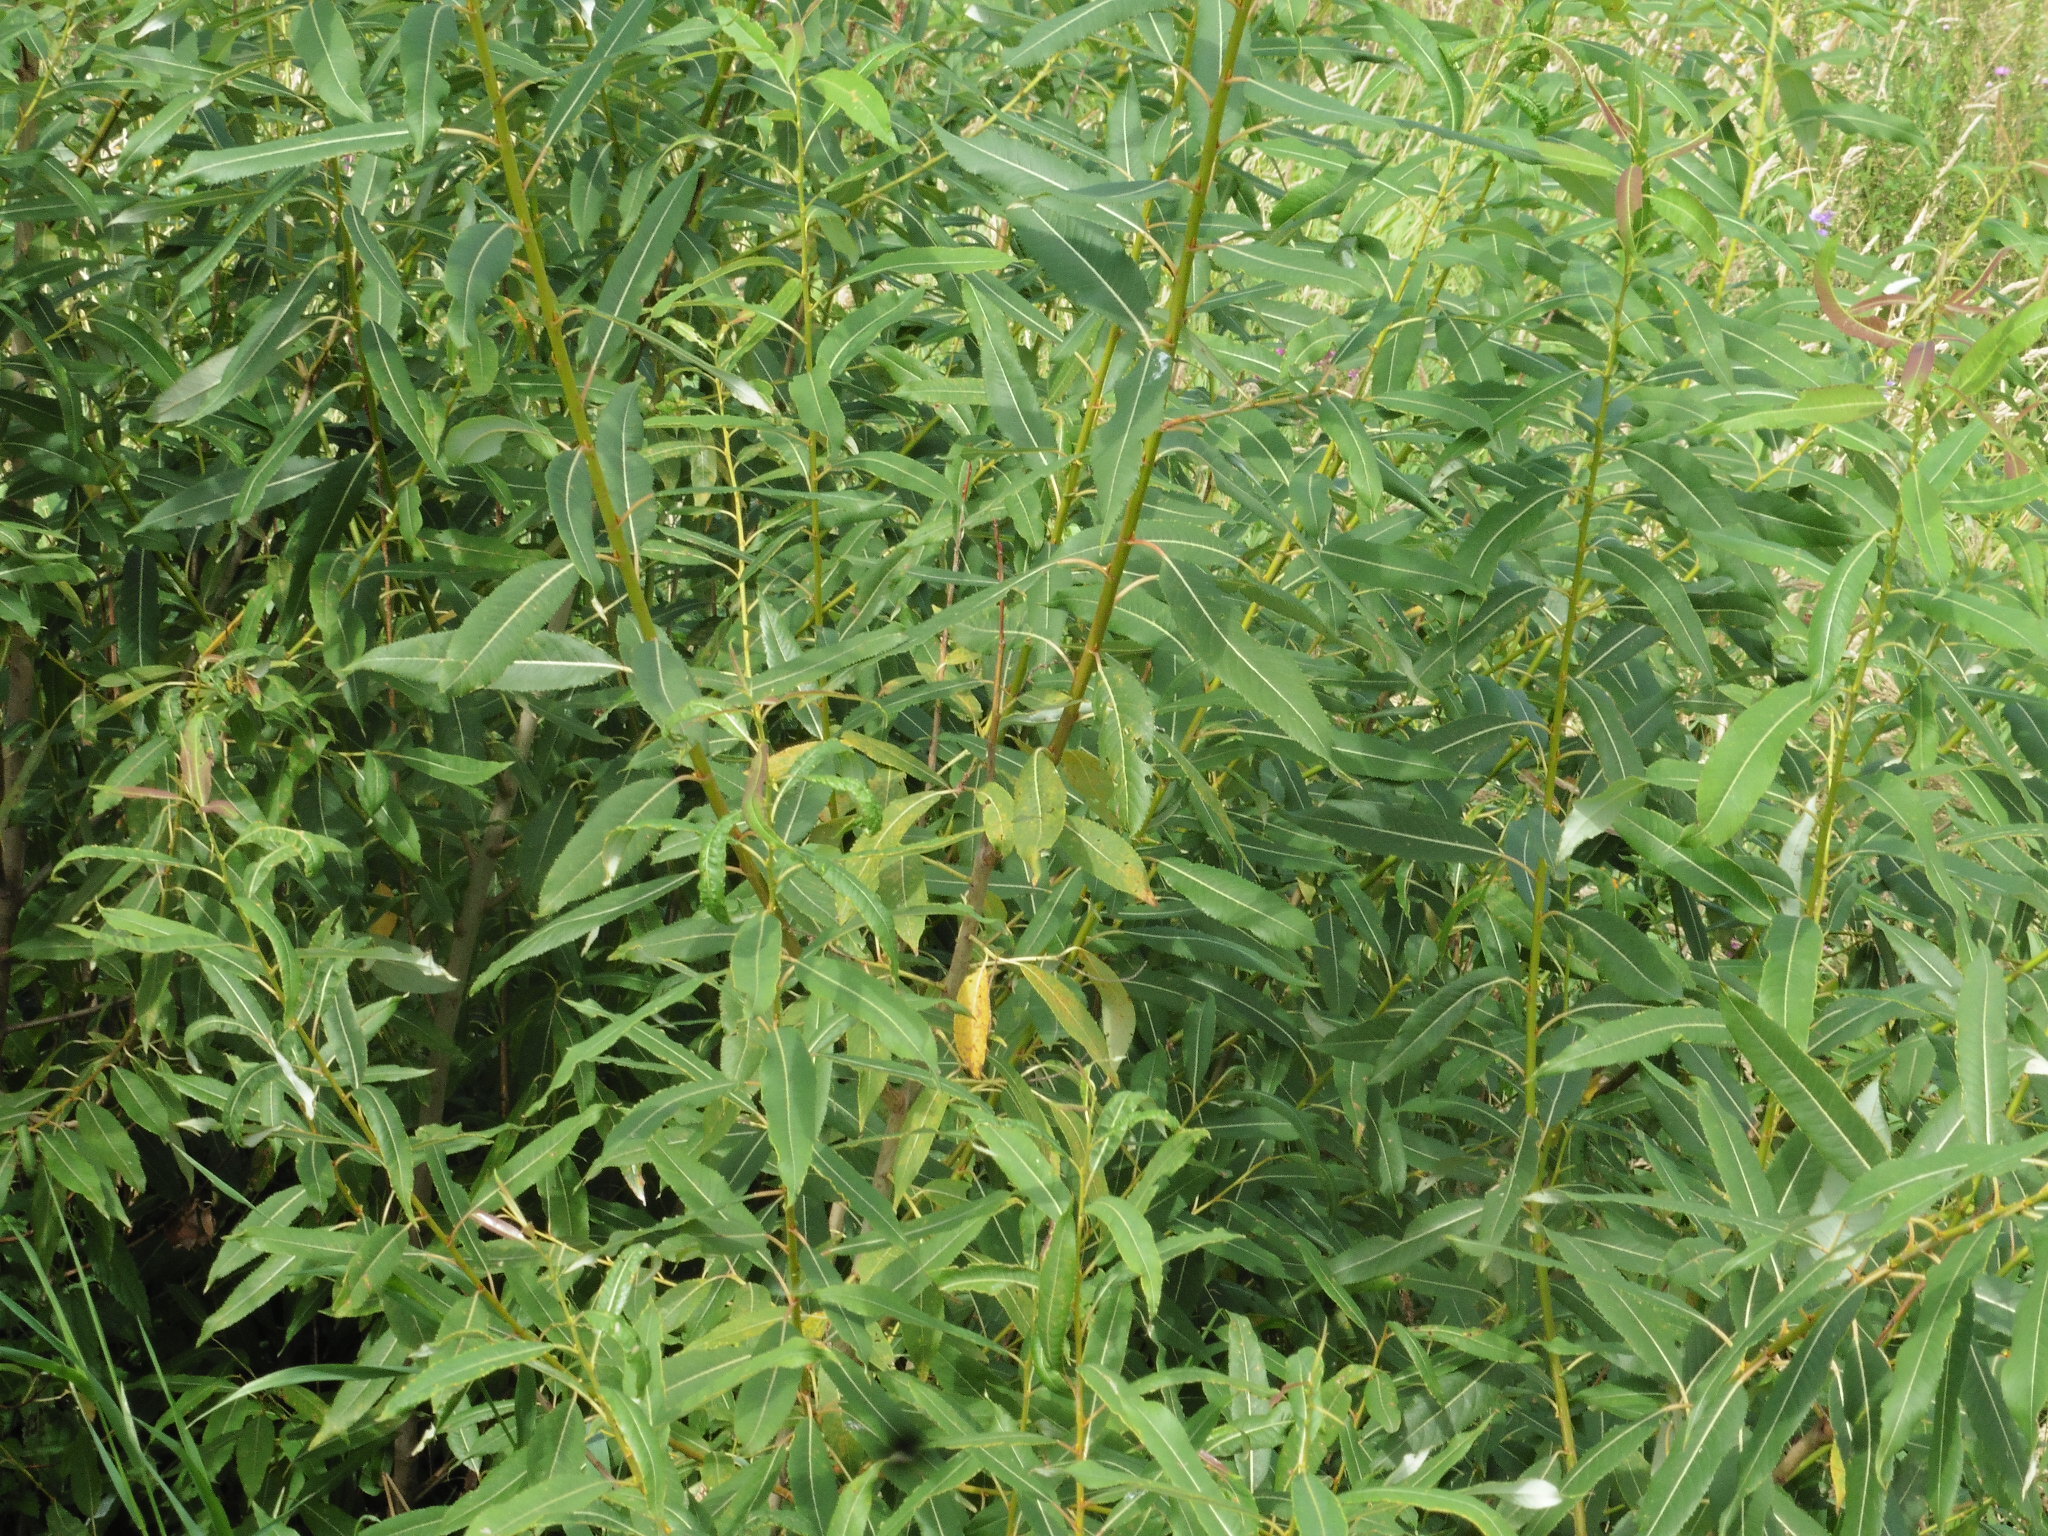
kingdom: Plantae
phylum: Tracheophyta
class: Magnoliopsida
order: Malpighiales
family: Salicaceae
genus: Salix
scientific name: Salix triandra
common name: Almond willow
